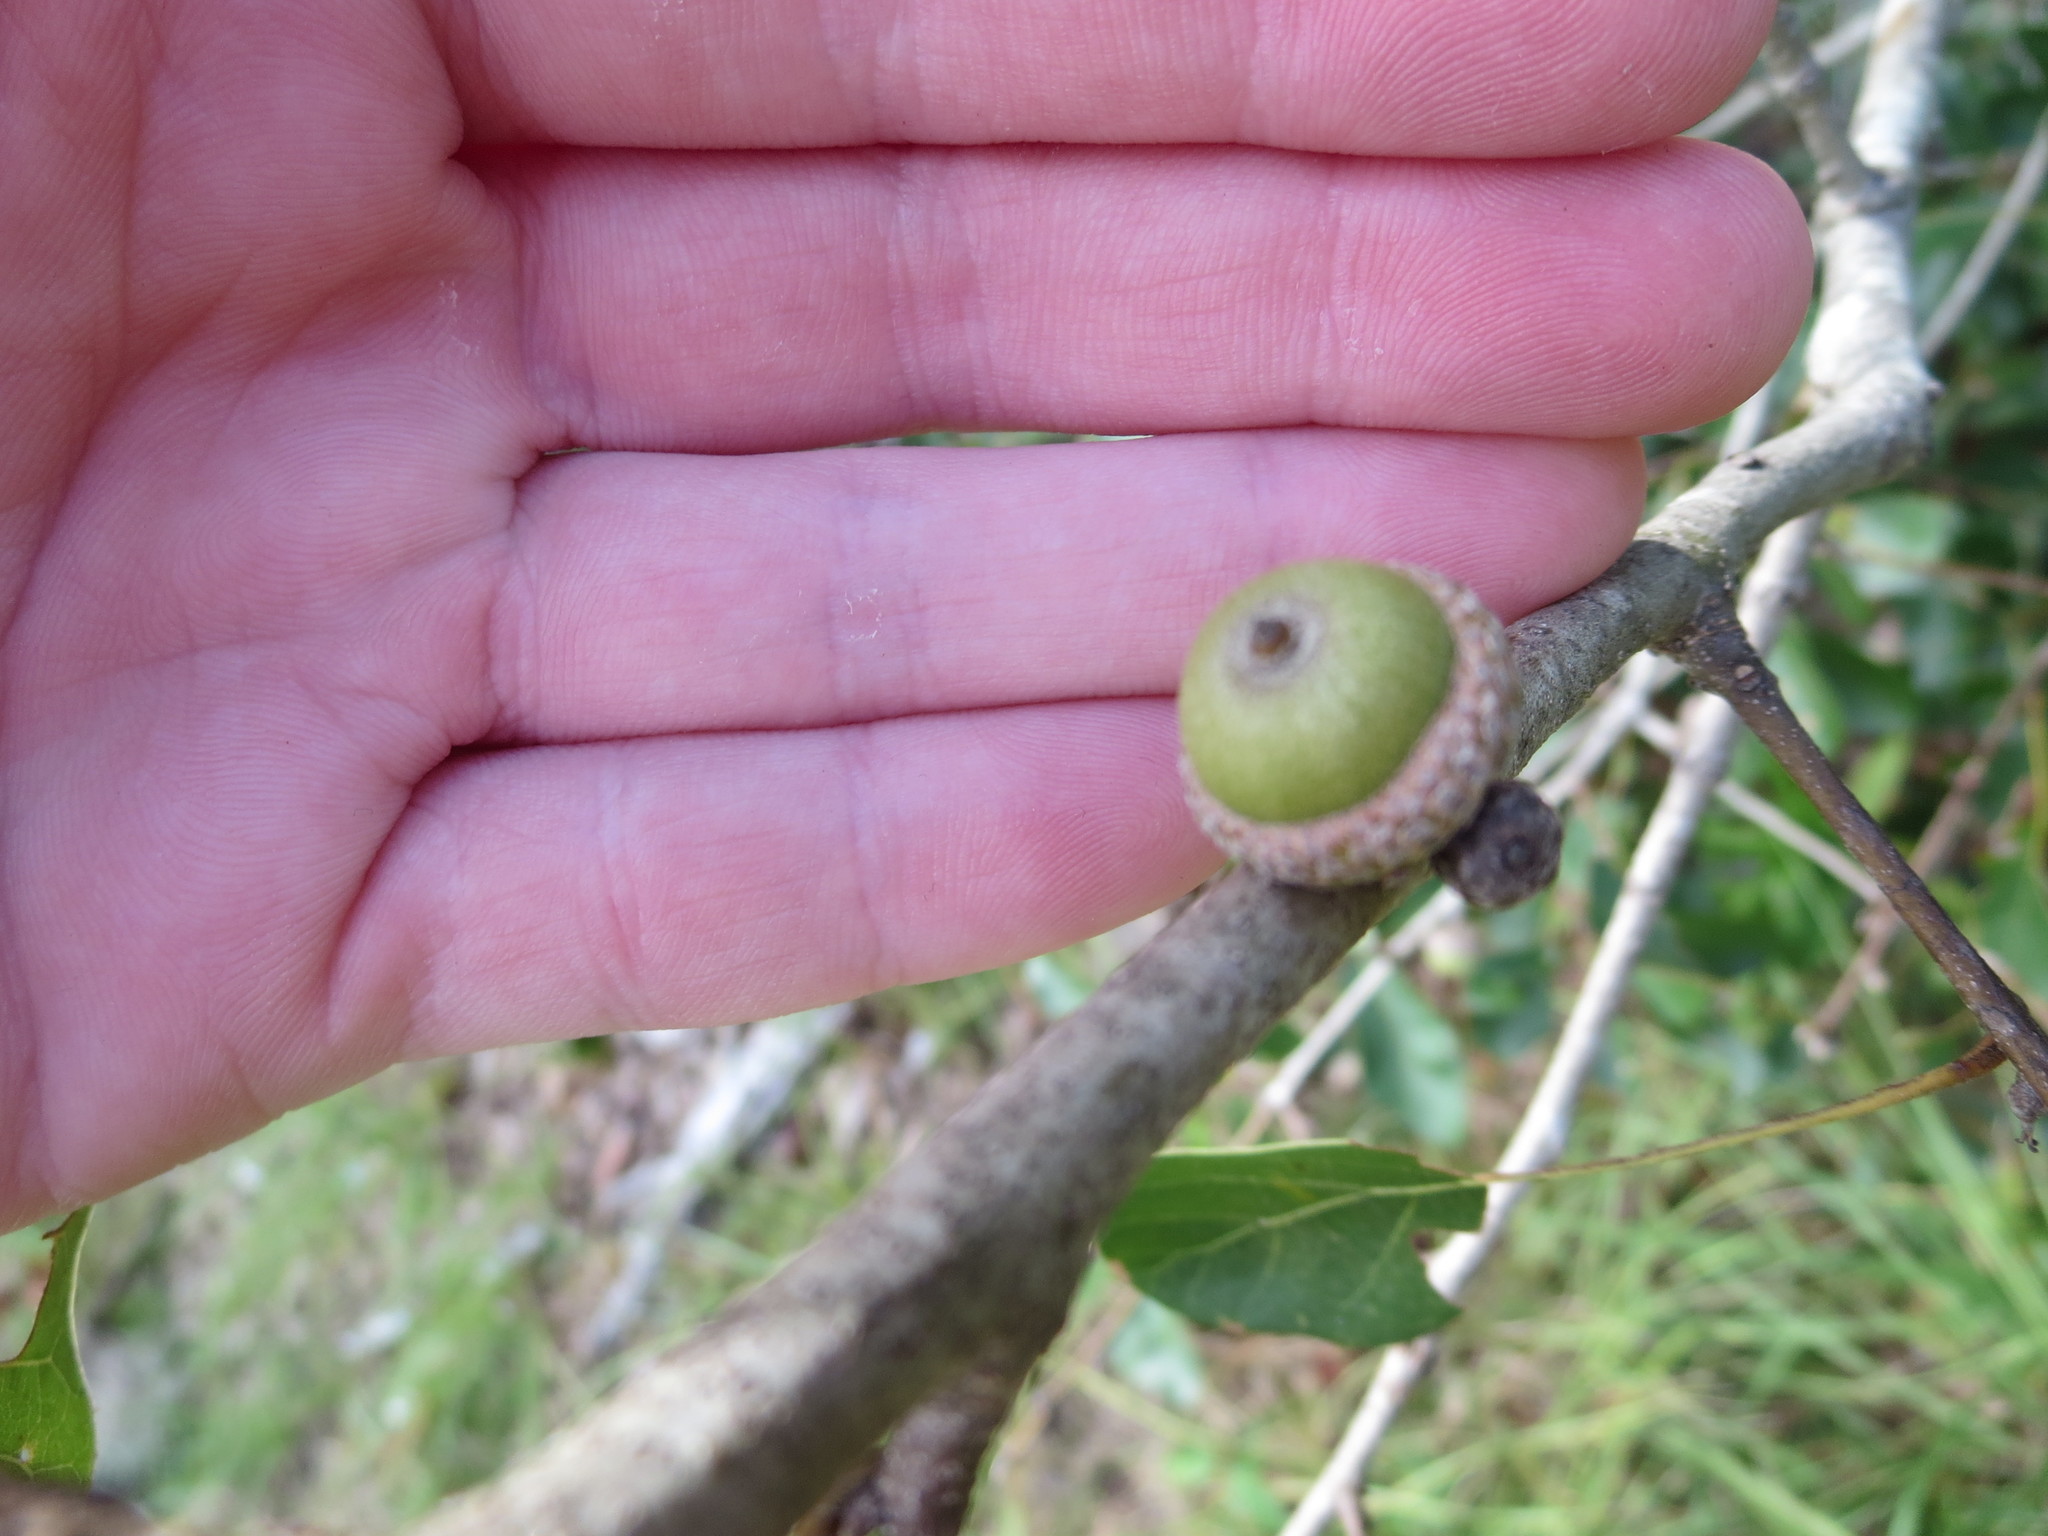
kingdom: Plantae
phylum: Tracheophyta
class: Magnoliopsida
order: Fagales
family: Fagaceae
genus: Quercus
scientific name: Quercus nigra
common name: Water oak
